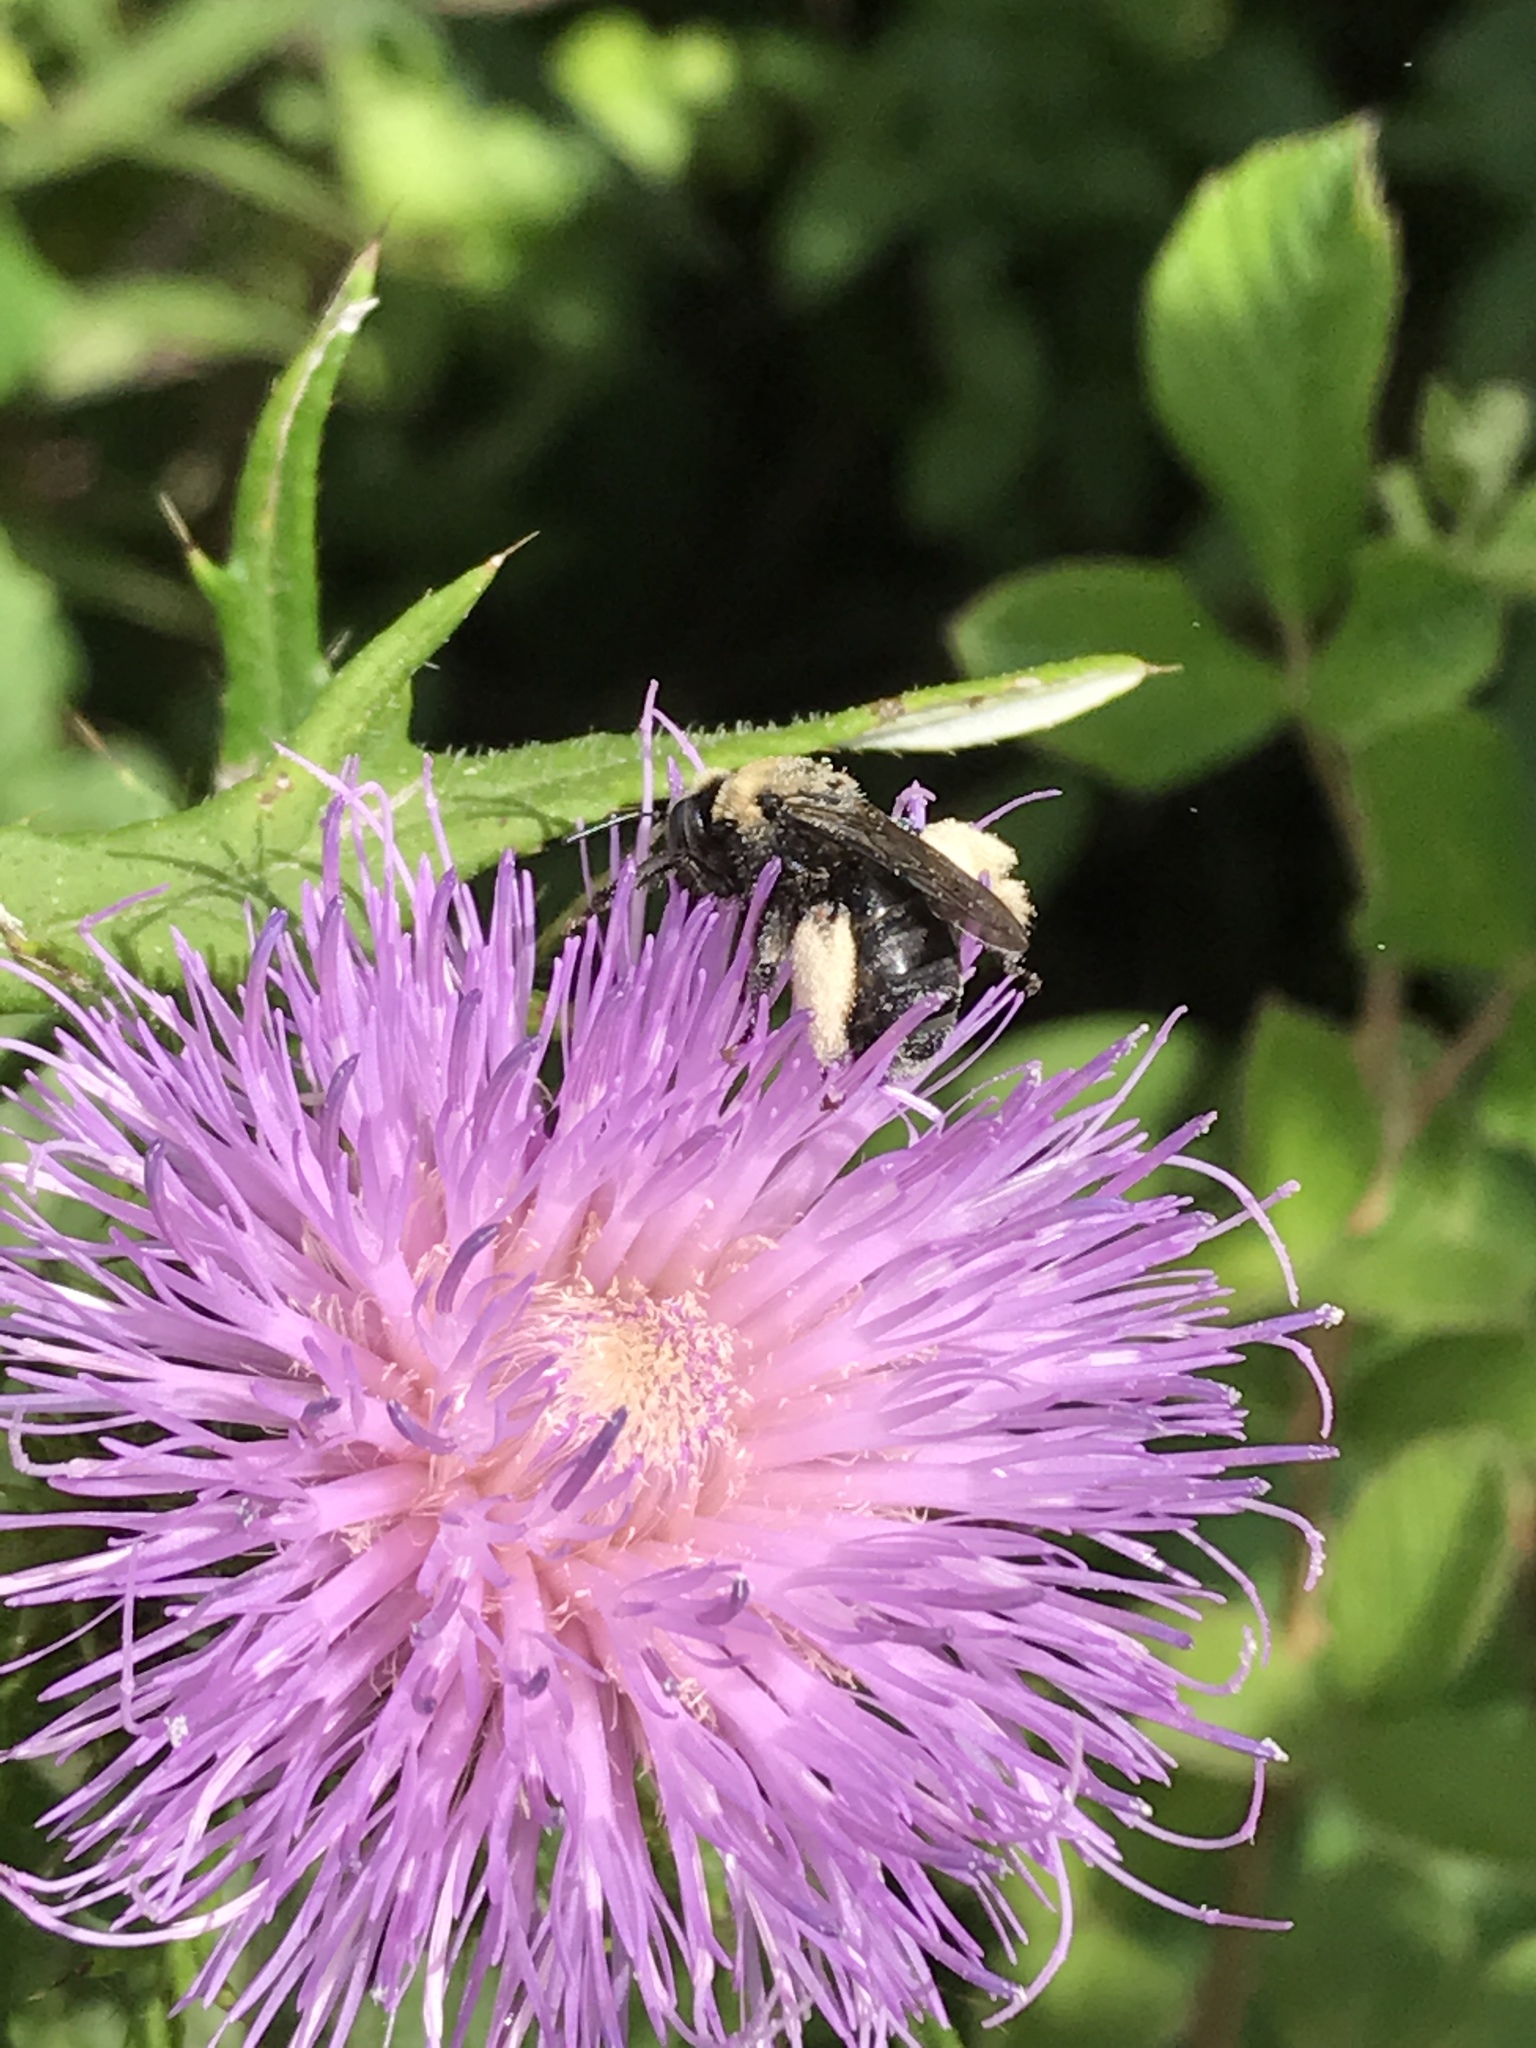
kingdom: Animalia
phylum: Arthropoda
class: Insecta
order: Hymenoptera
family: Apidae
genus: Melissodes
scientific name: Melissodes desponsus
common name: Thistle long-horned bee
